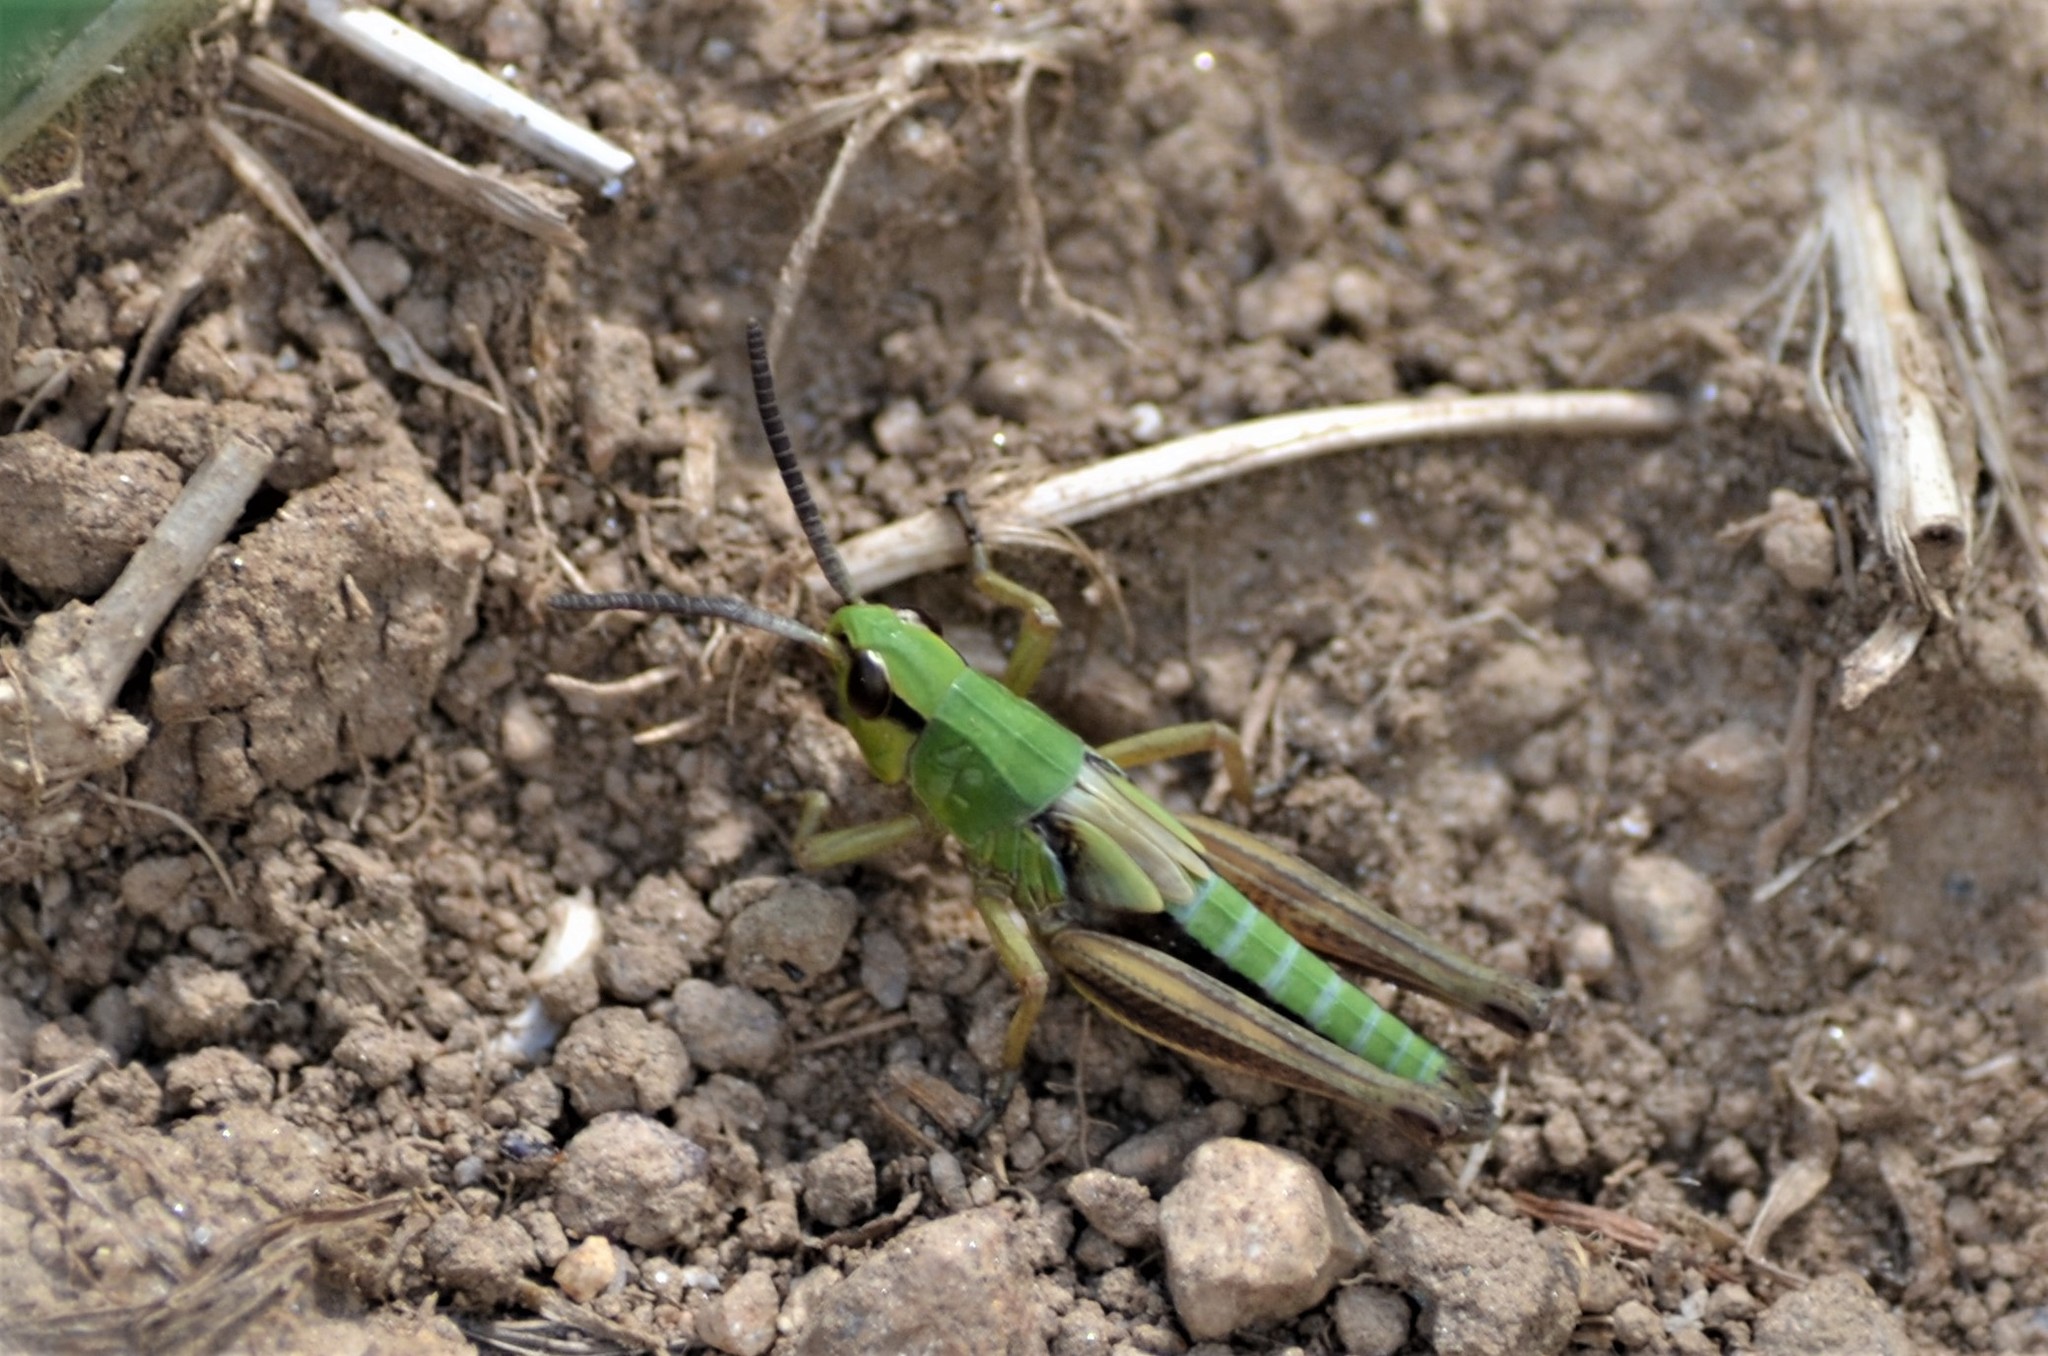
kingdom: Animalia
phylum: Arthropoda
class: Insecta
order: Orthoptera
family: Acrididae
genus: Pseudochorthippus
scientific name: Pseudochorthippus parallelus
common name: Meadow grasshopper
